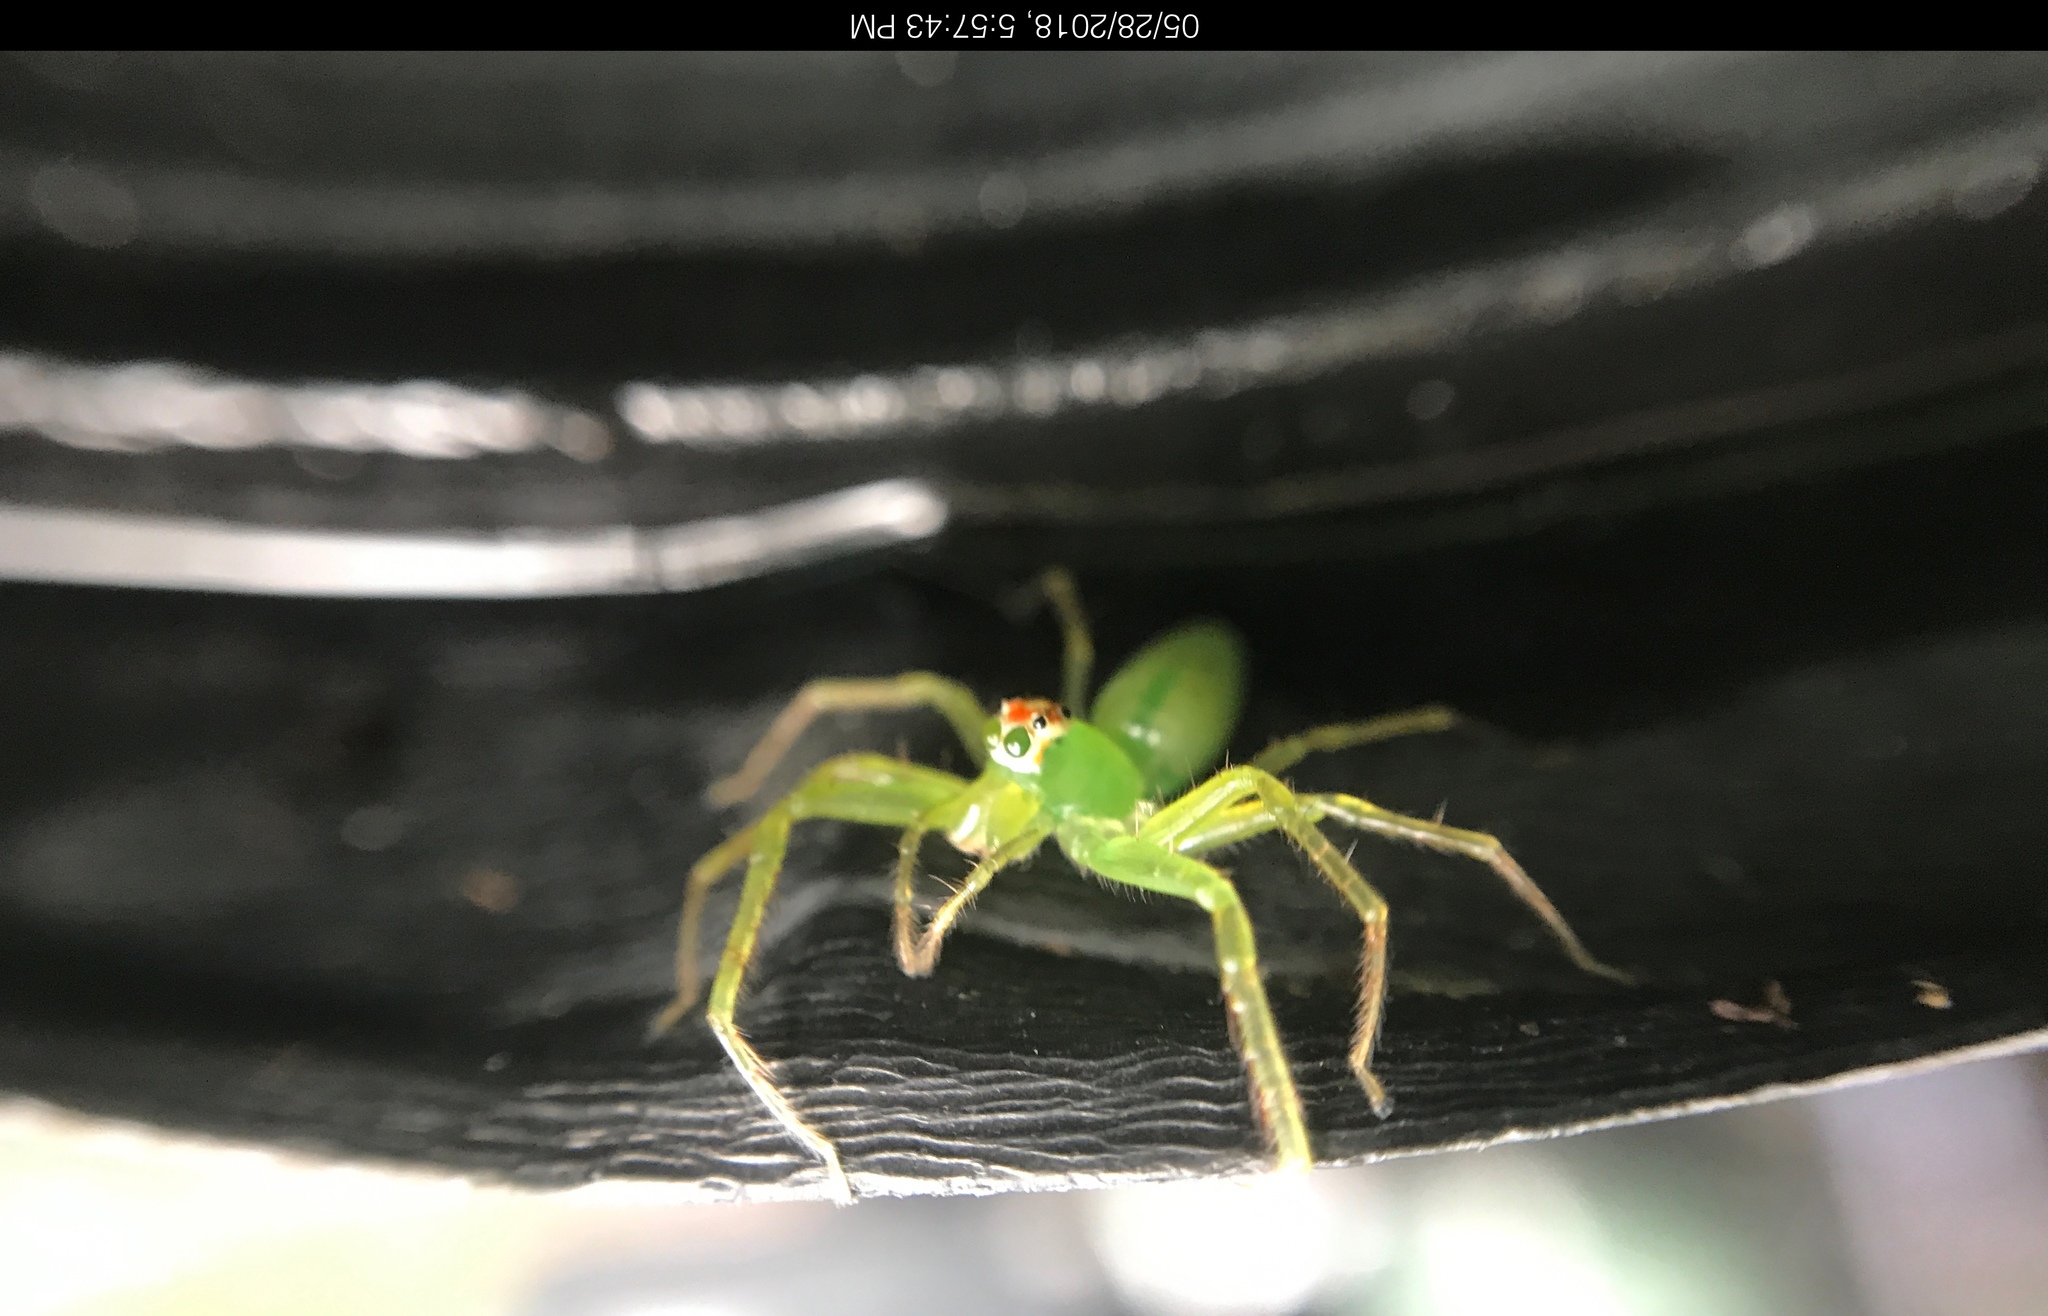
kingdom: Animalia
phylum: Arthropoda
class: Arachnida
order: Araneae
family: Salticidae
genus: Lyssomanes
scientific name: Lyssomanes viridis
